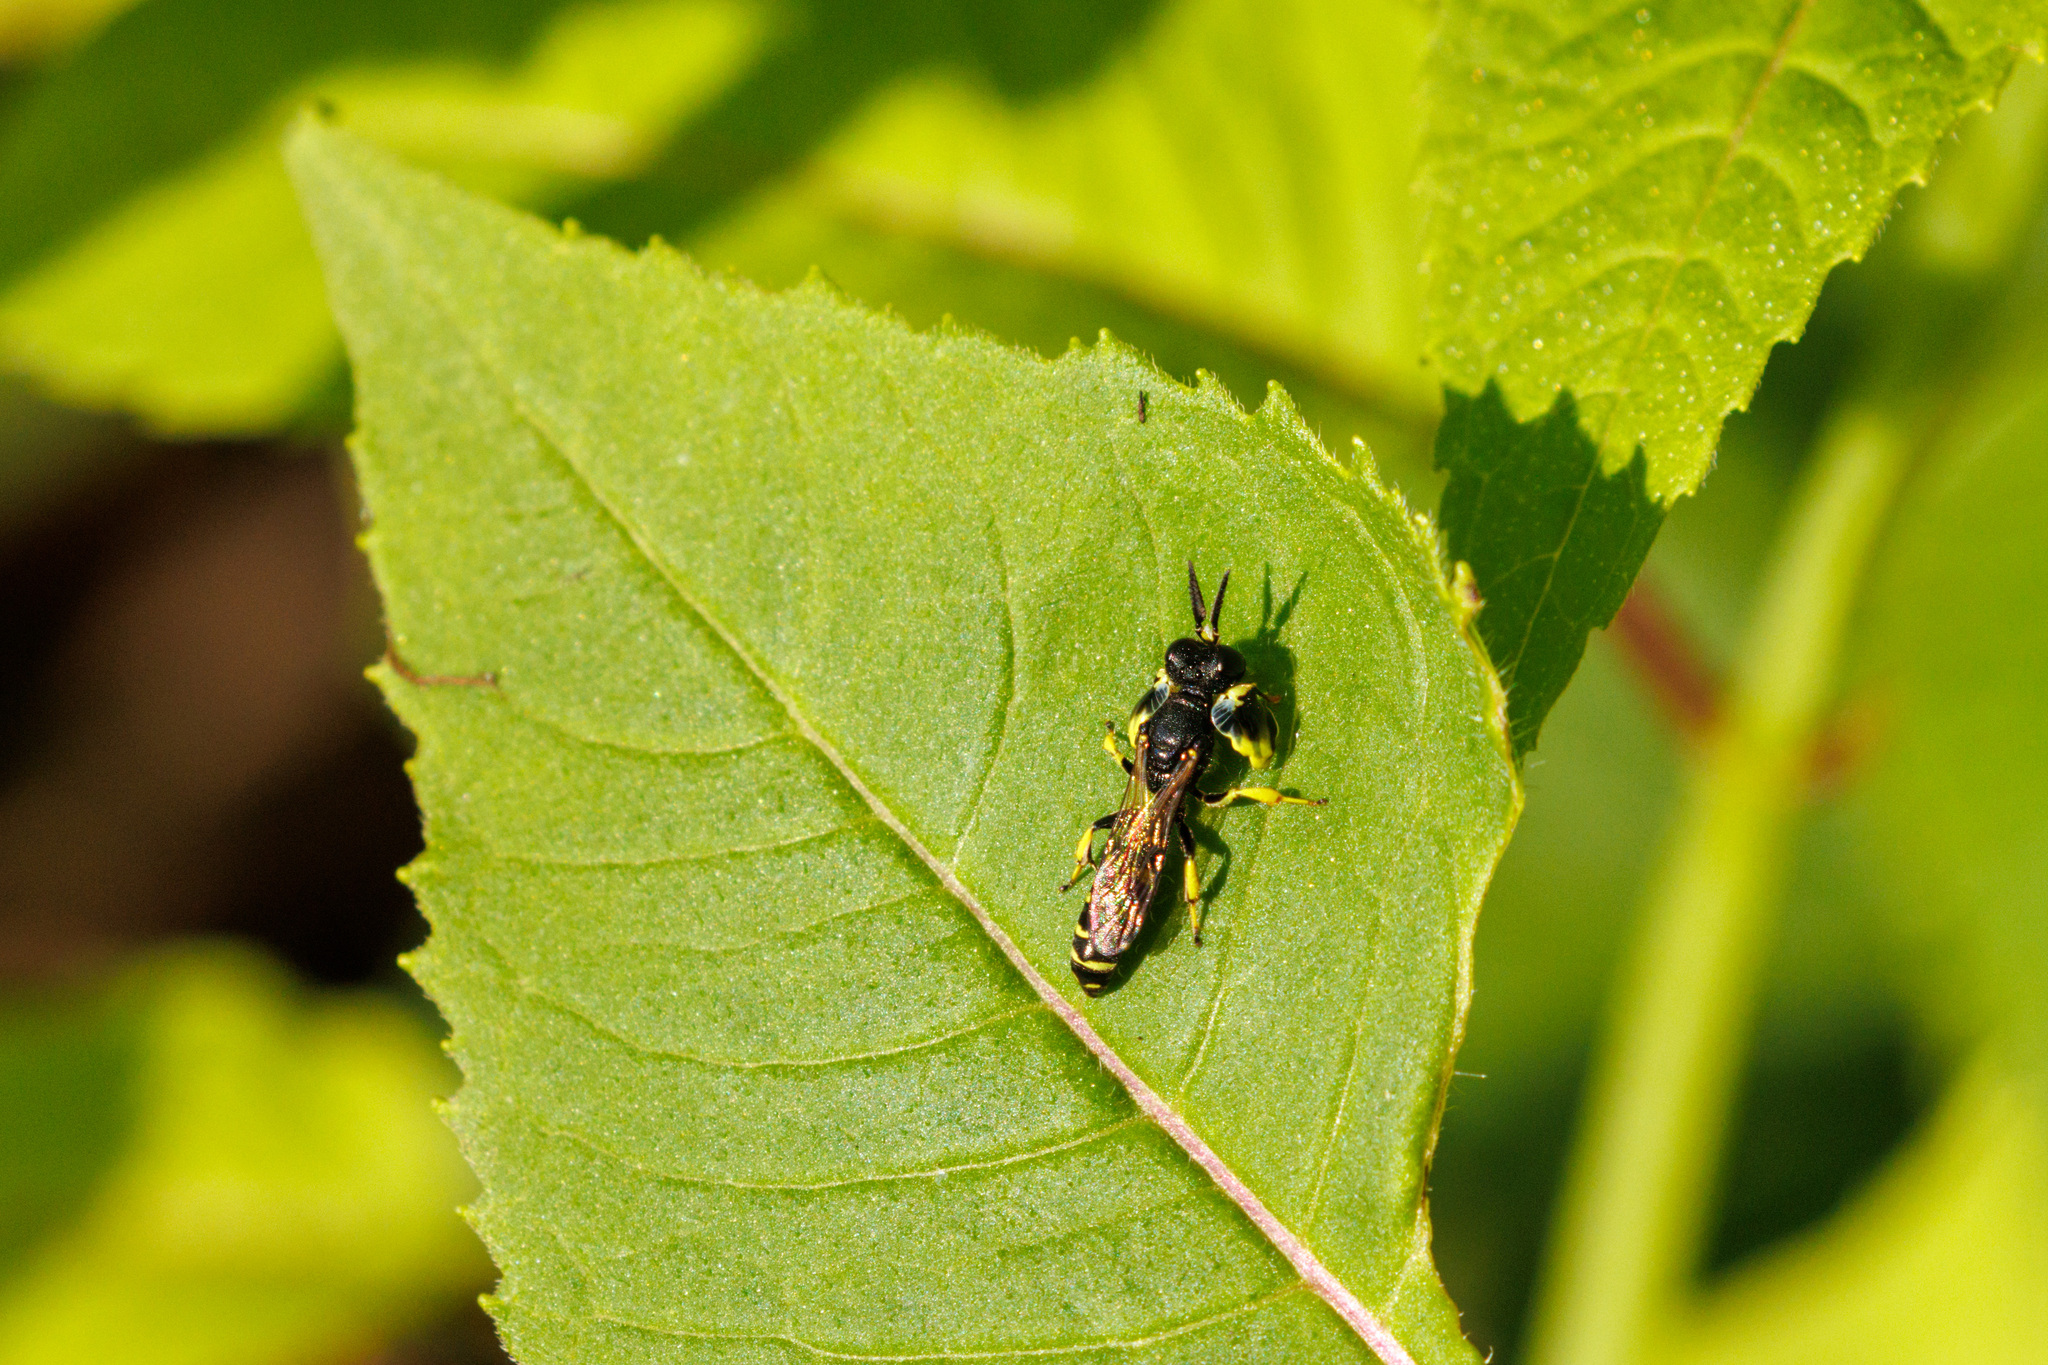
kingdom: Animalia
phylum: Arthropoda
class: Insecta
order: Hymenoptera
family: Crabronidae
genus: Crabro
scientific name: Crabro latipes
